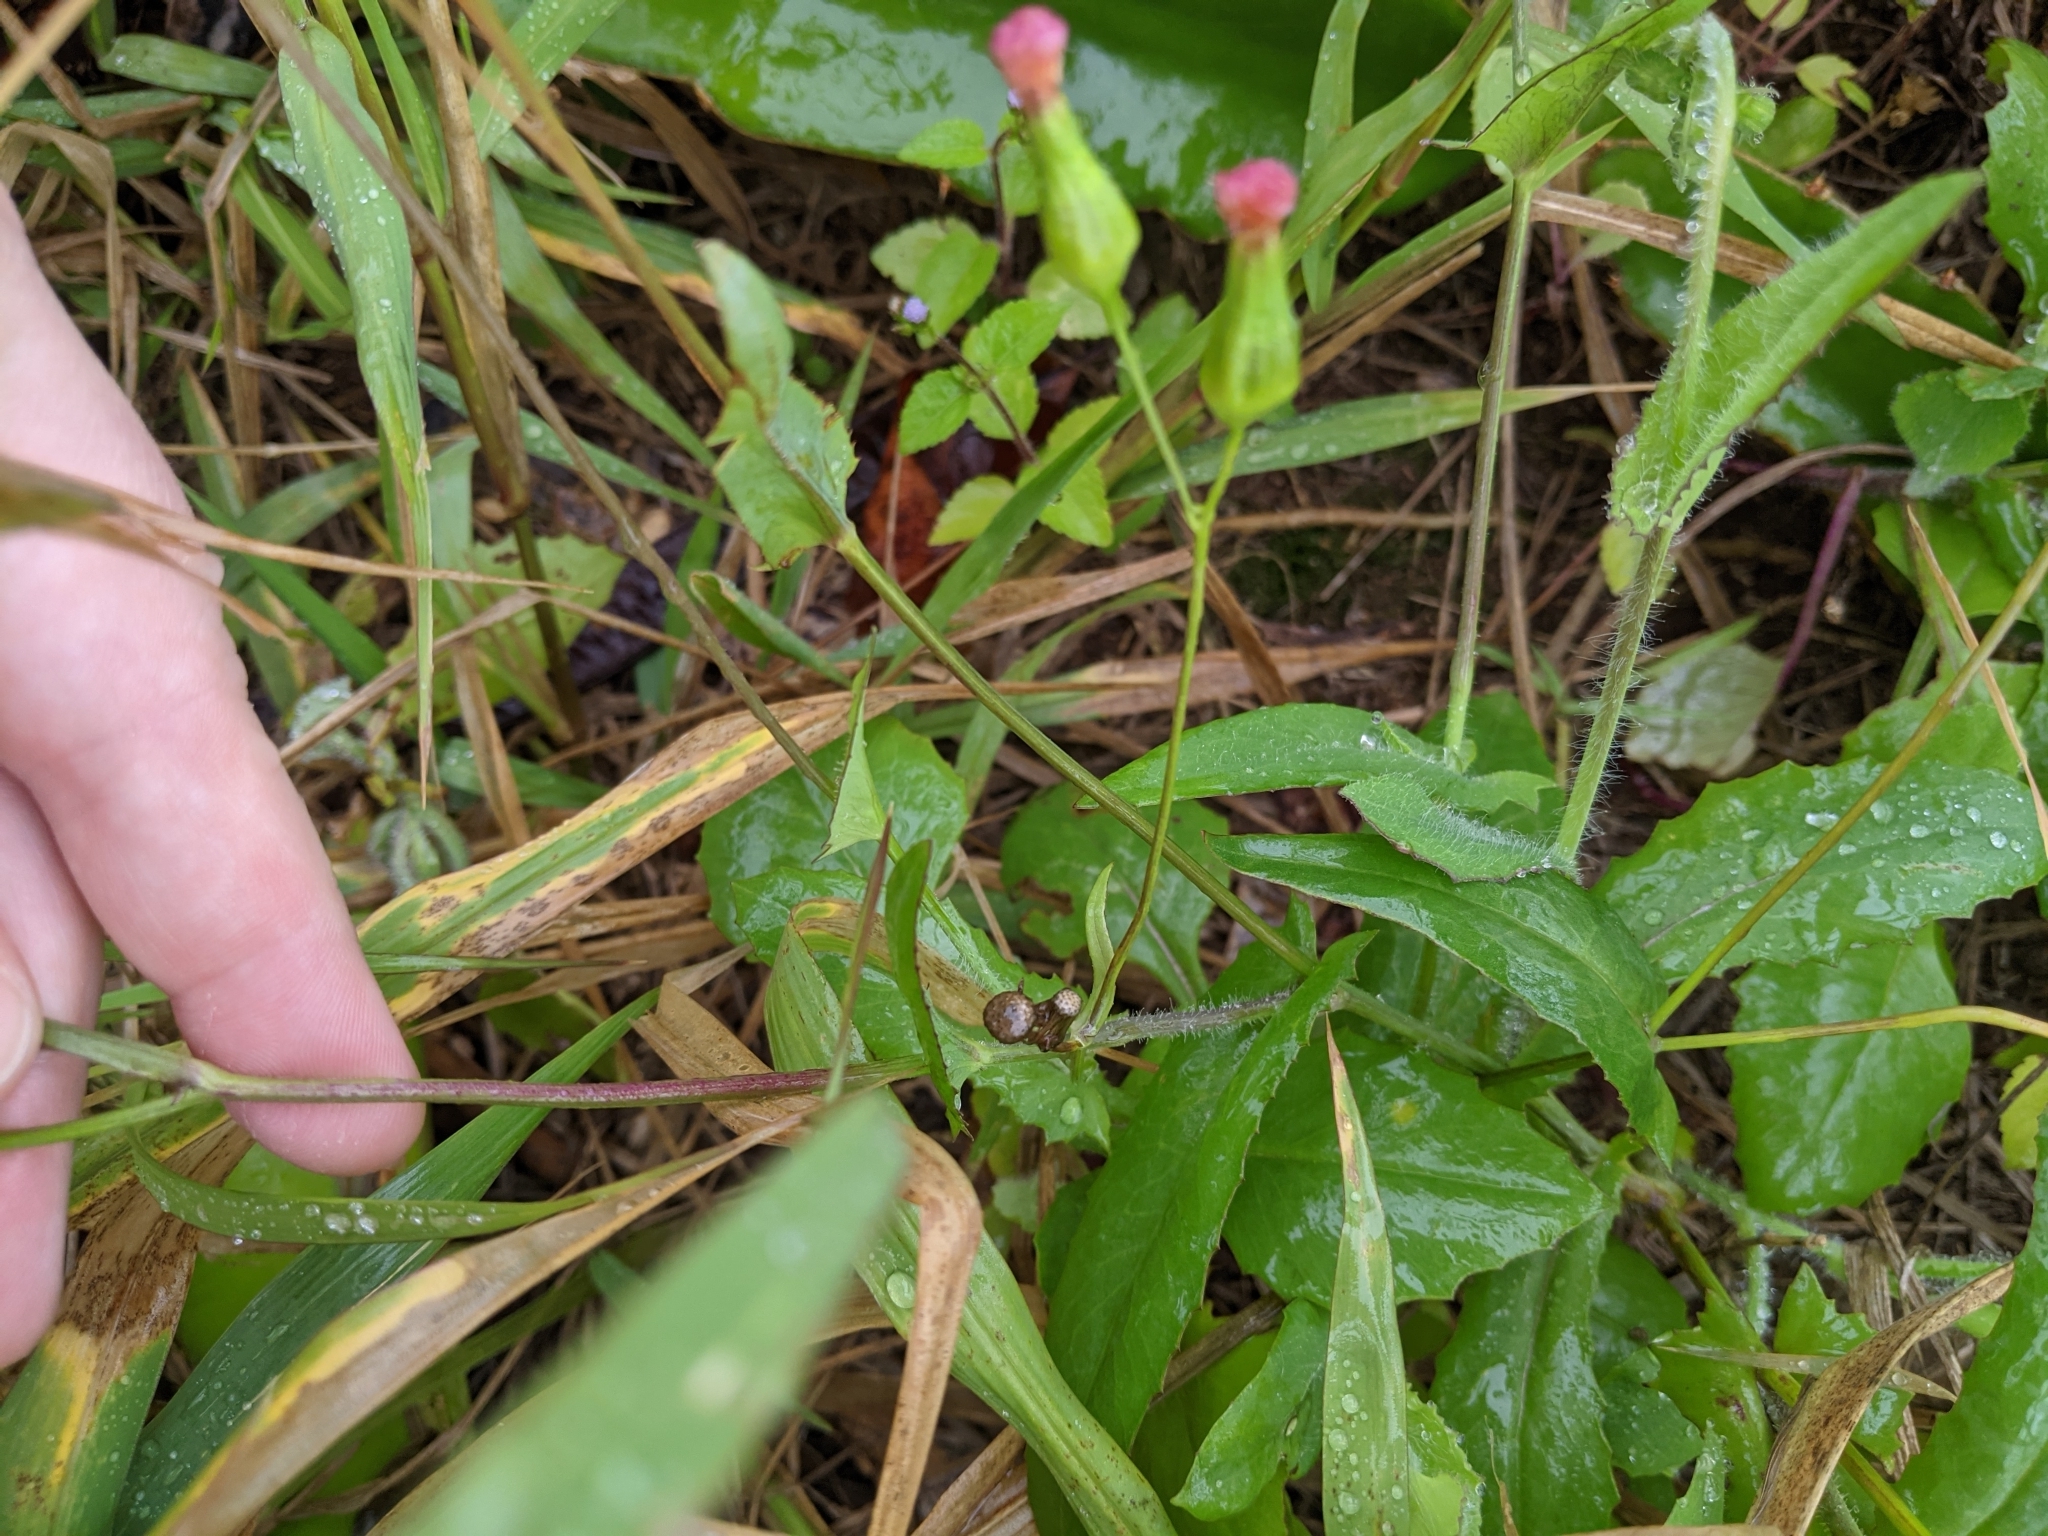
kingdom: Plantae
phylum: Tracheophyta
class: Magnoliopsida
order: Asterales
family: Asteraceae
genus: Emilia
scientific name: Emilia fosbergii
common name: Florida tasselflower
